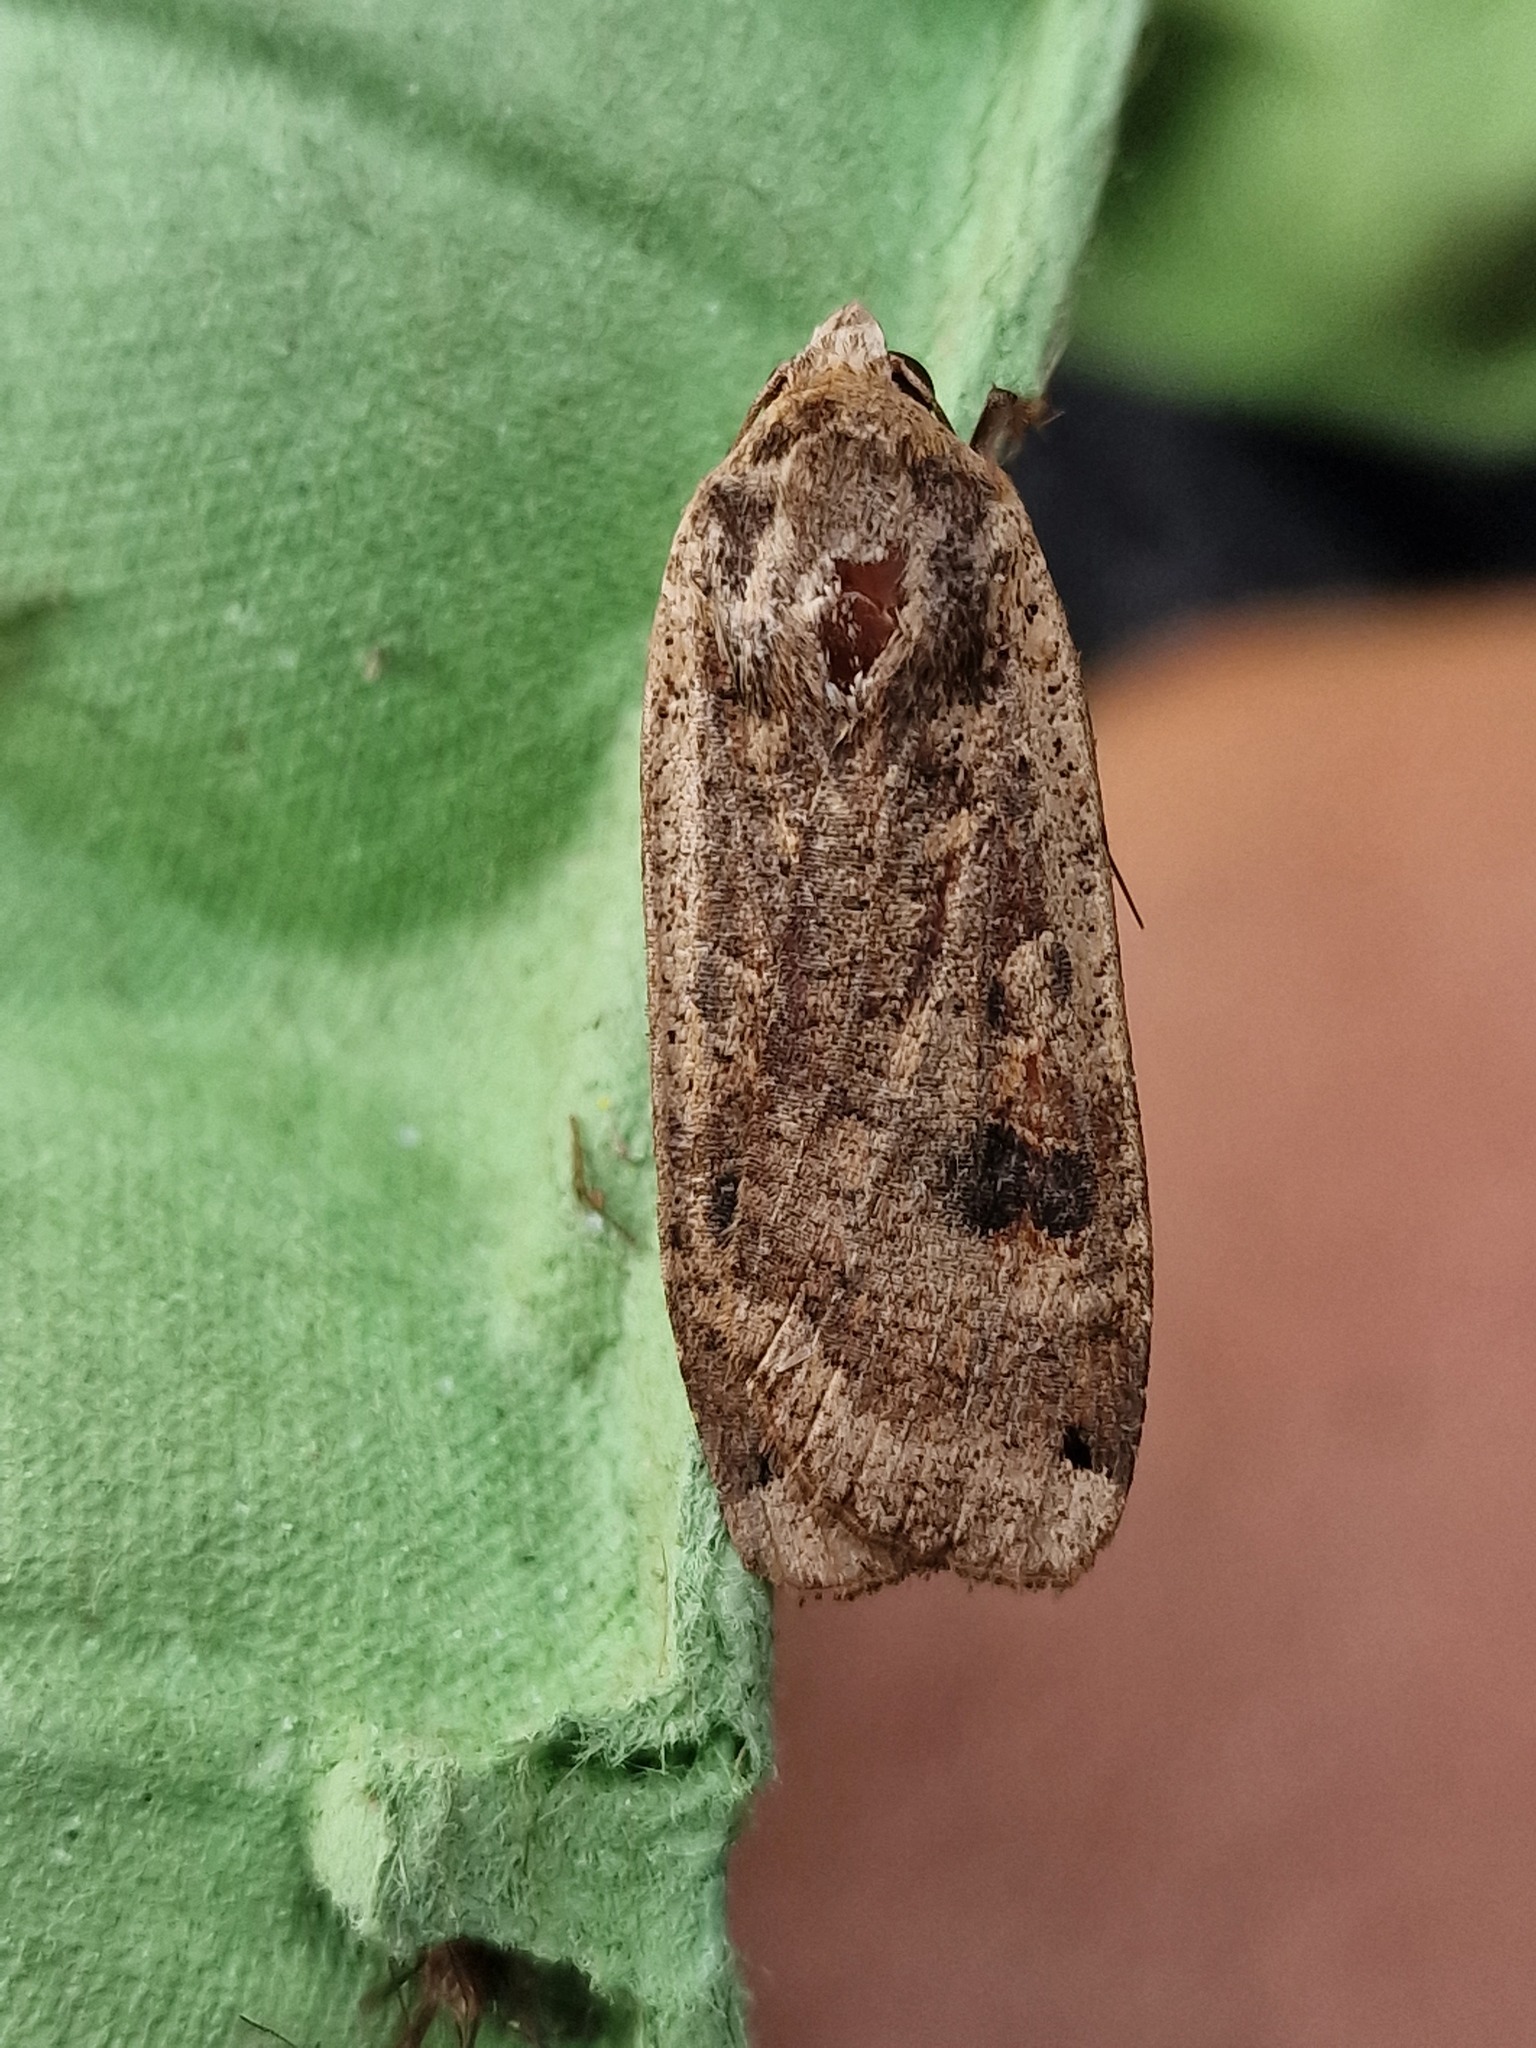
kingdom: Animalia
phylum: Arthropoda
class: Insecta
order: Lepidoptera
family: Noctuidae
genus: Noctua
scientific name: Noctua pronuba
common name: Large yellow underwing
